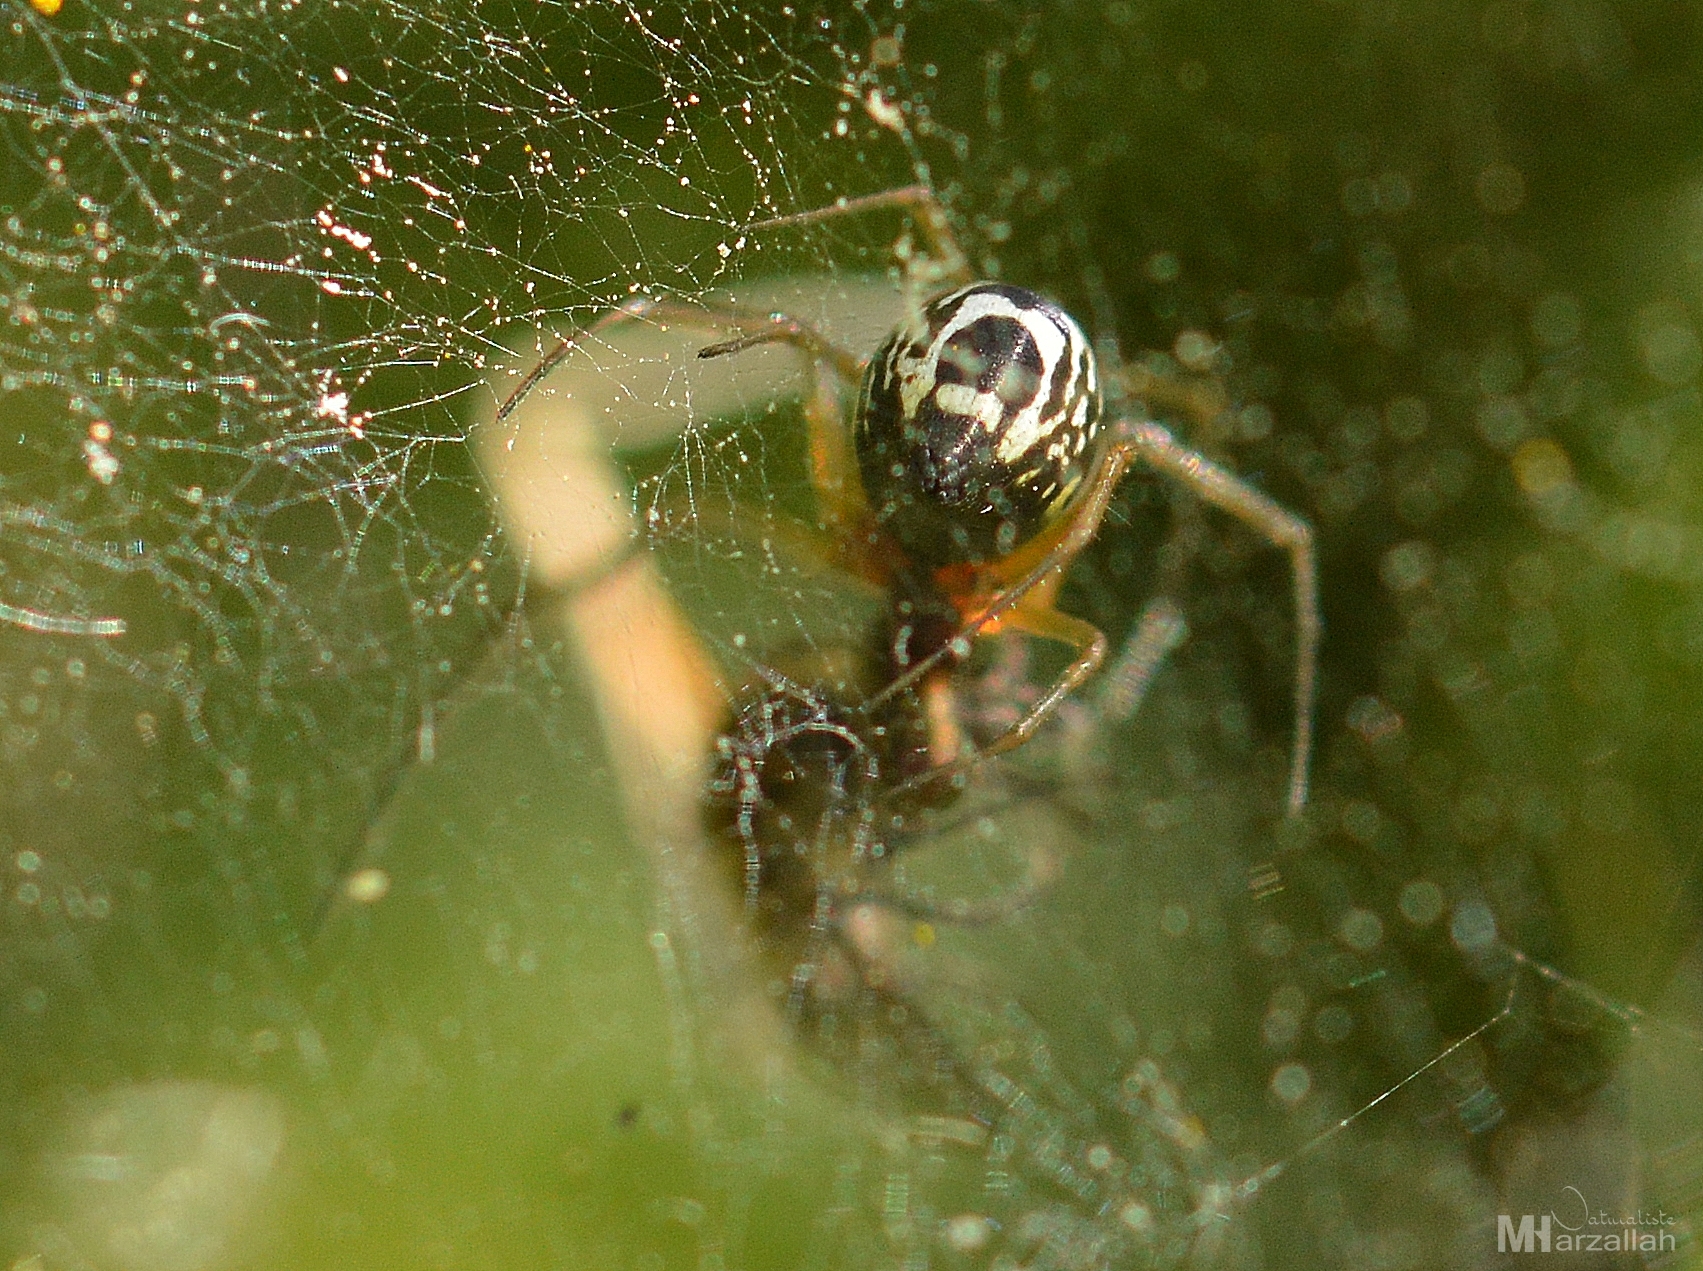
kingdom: Animalia
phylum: Arthropoda
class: Arachnida
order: Araneae
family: Linyphiidae
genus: Frontinellina
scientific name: Frontinellina frutetorum
